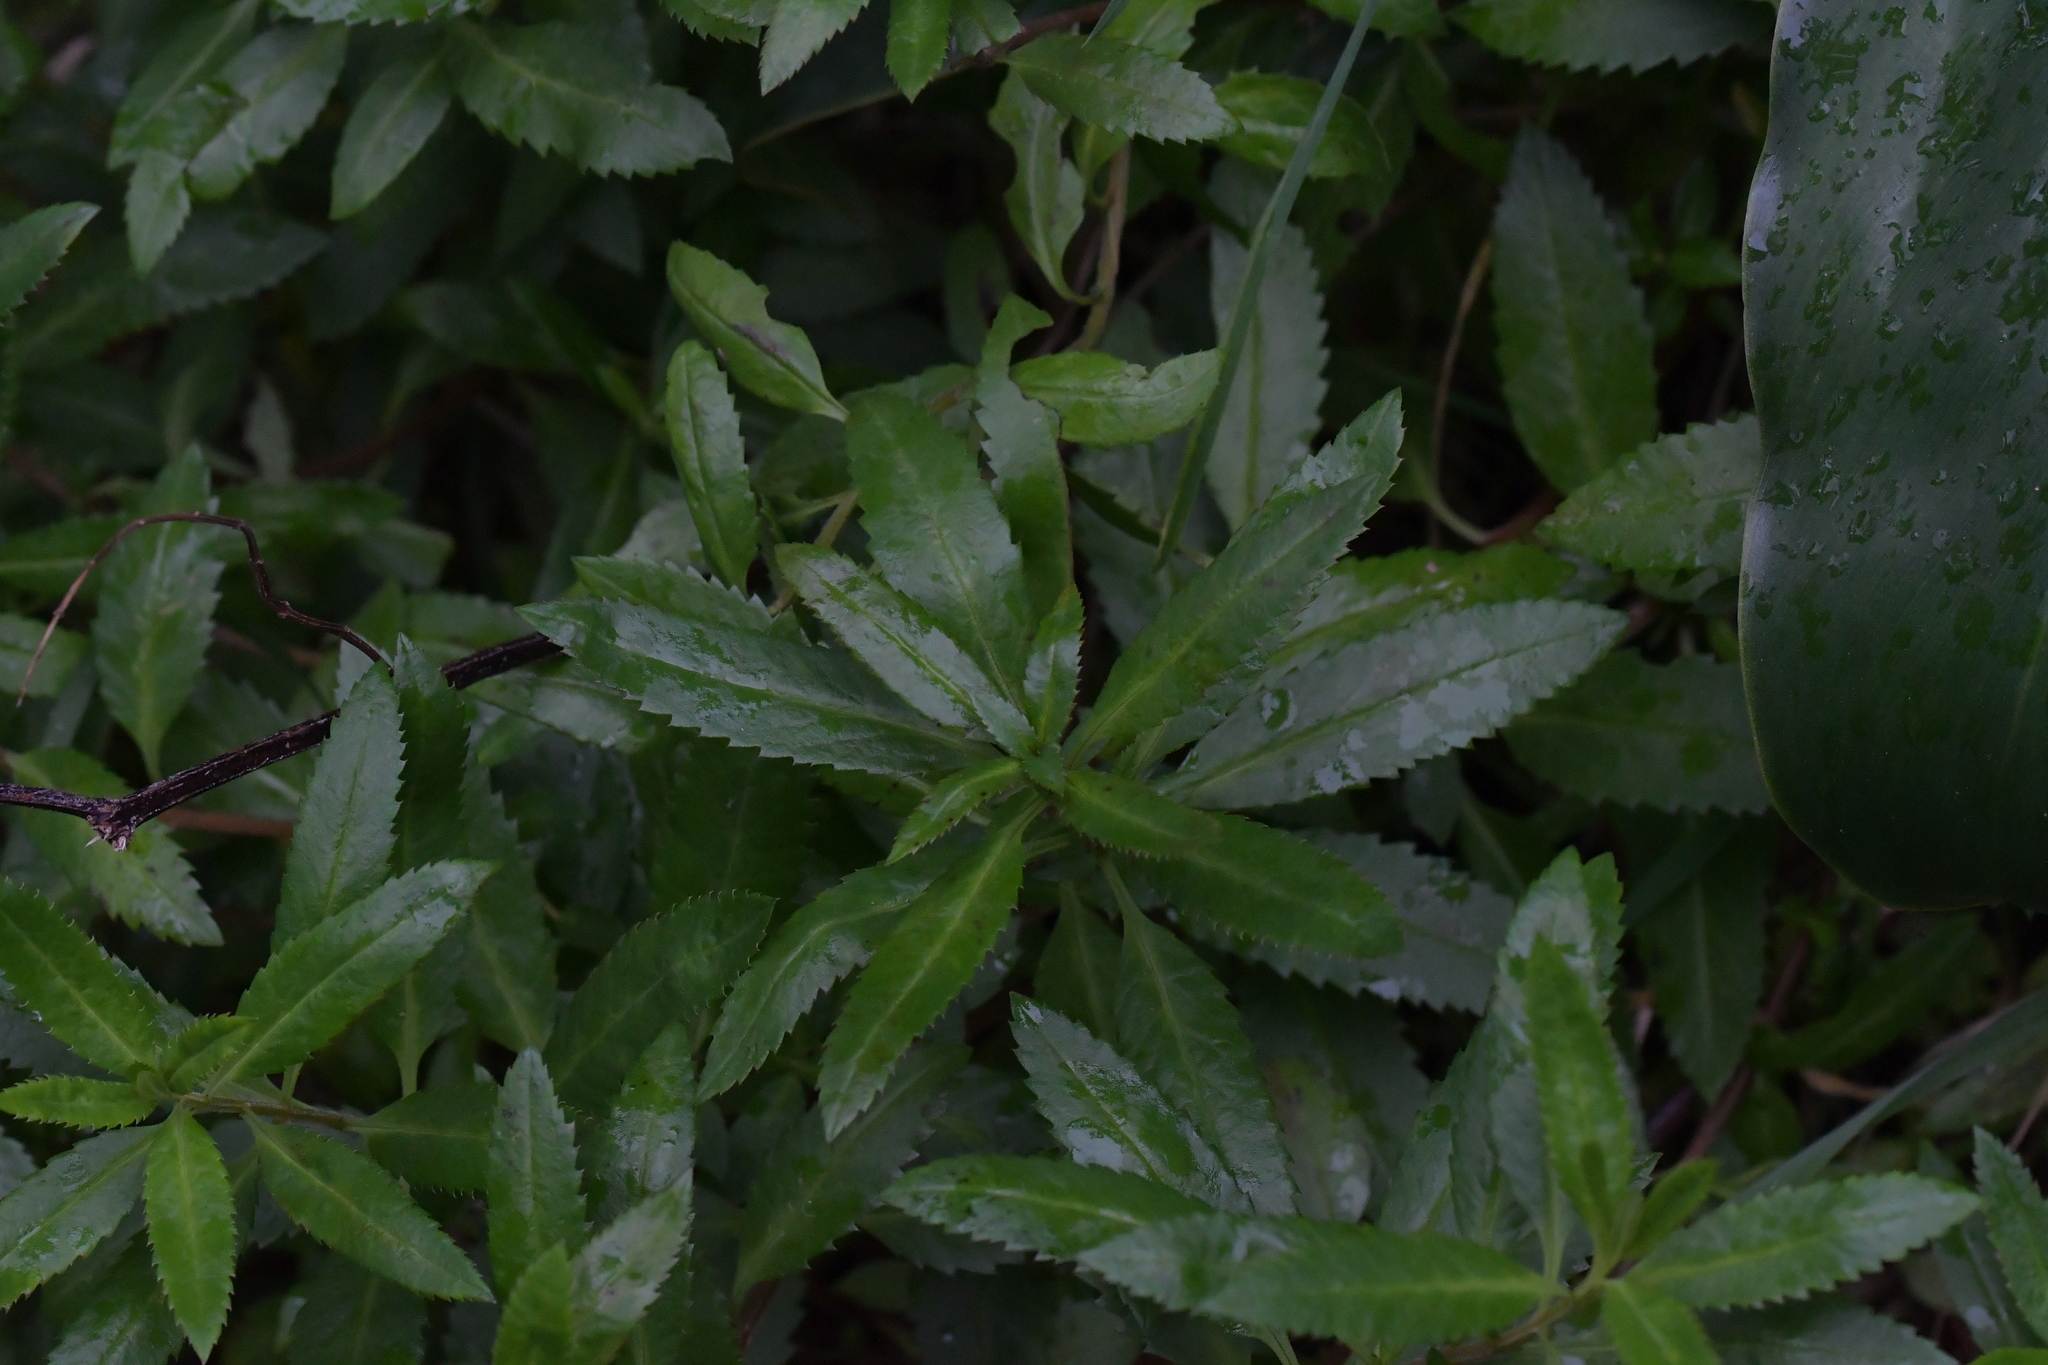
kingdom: Plantae
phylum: Tracheophyta
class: Magnoliopsida
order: Saxifragales
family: Haloragaceae
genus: Haloragis
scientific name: Haloragis erecta
